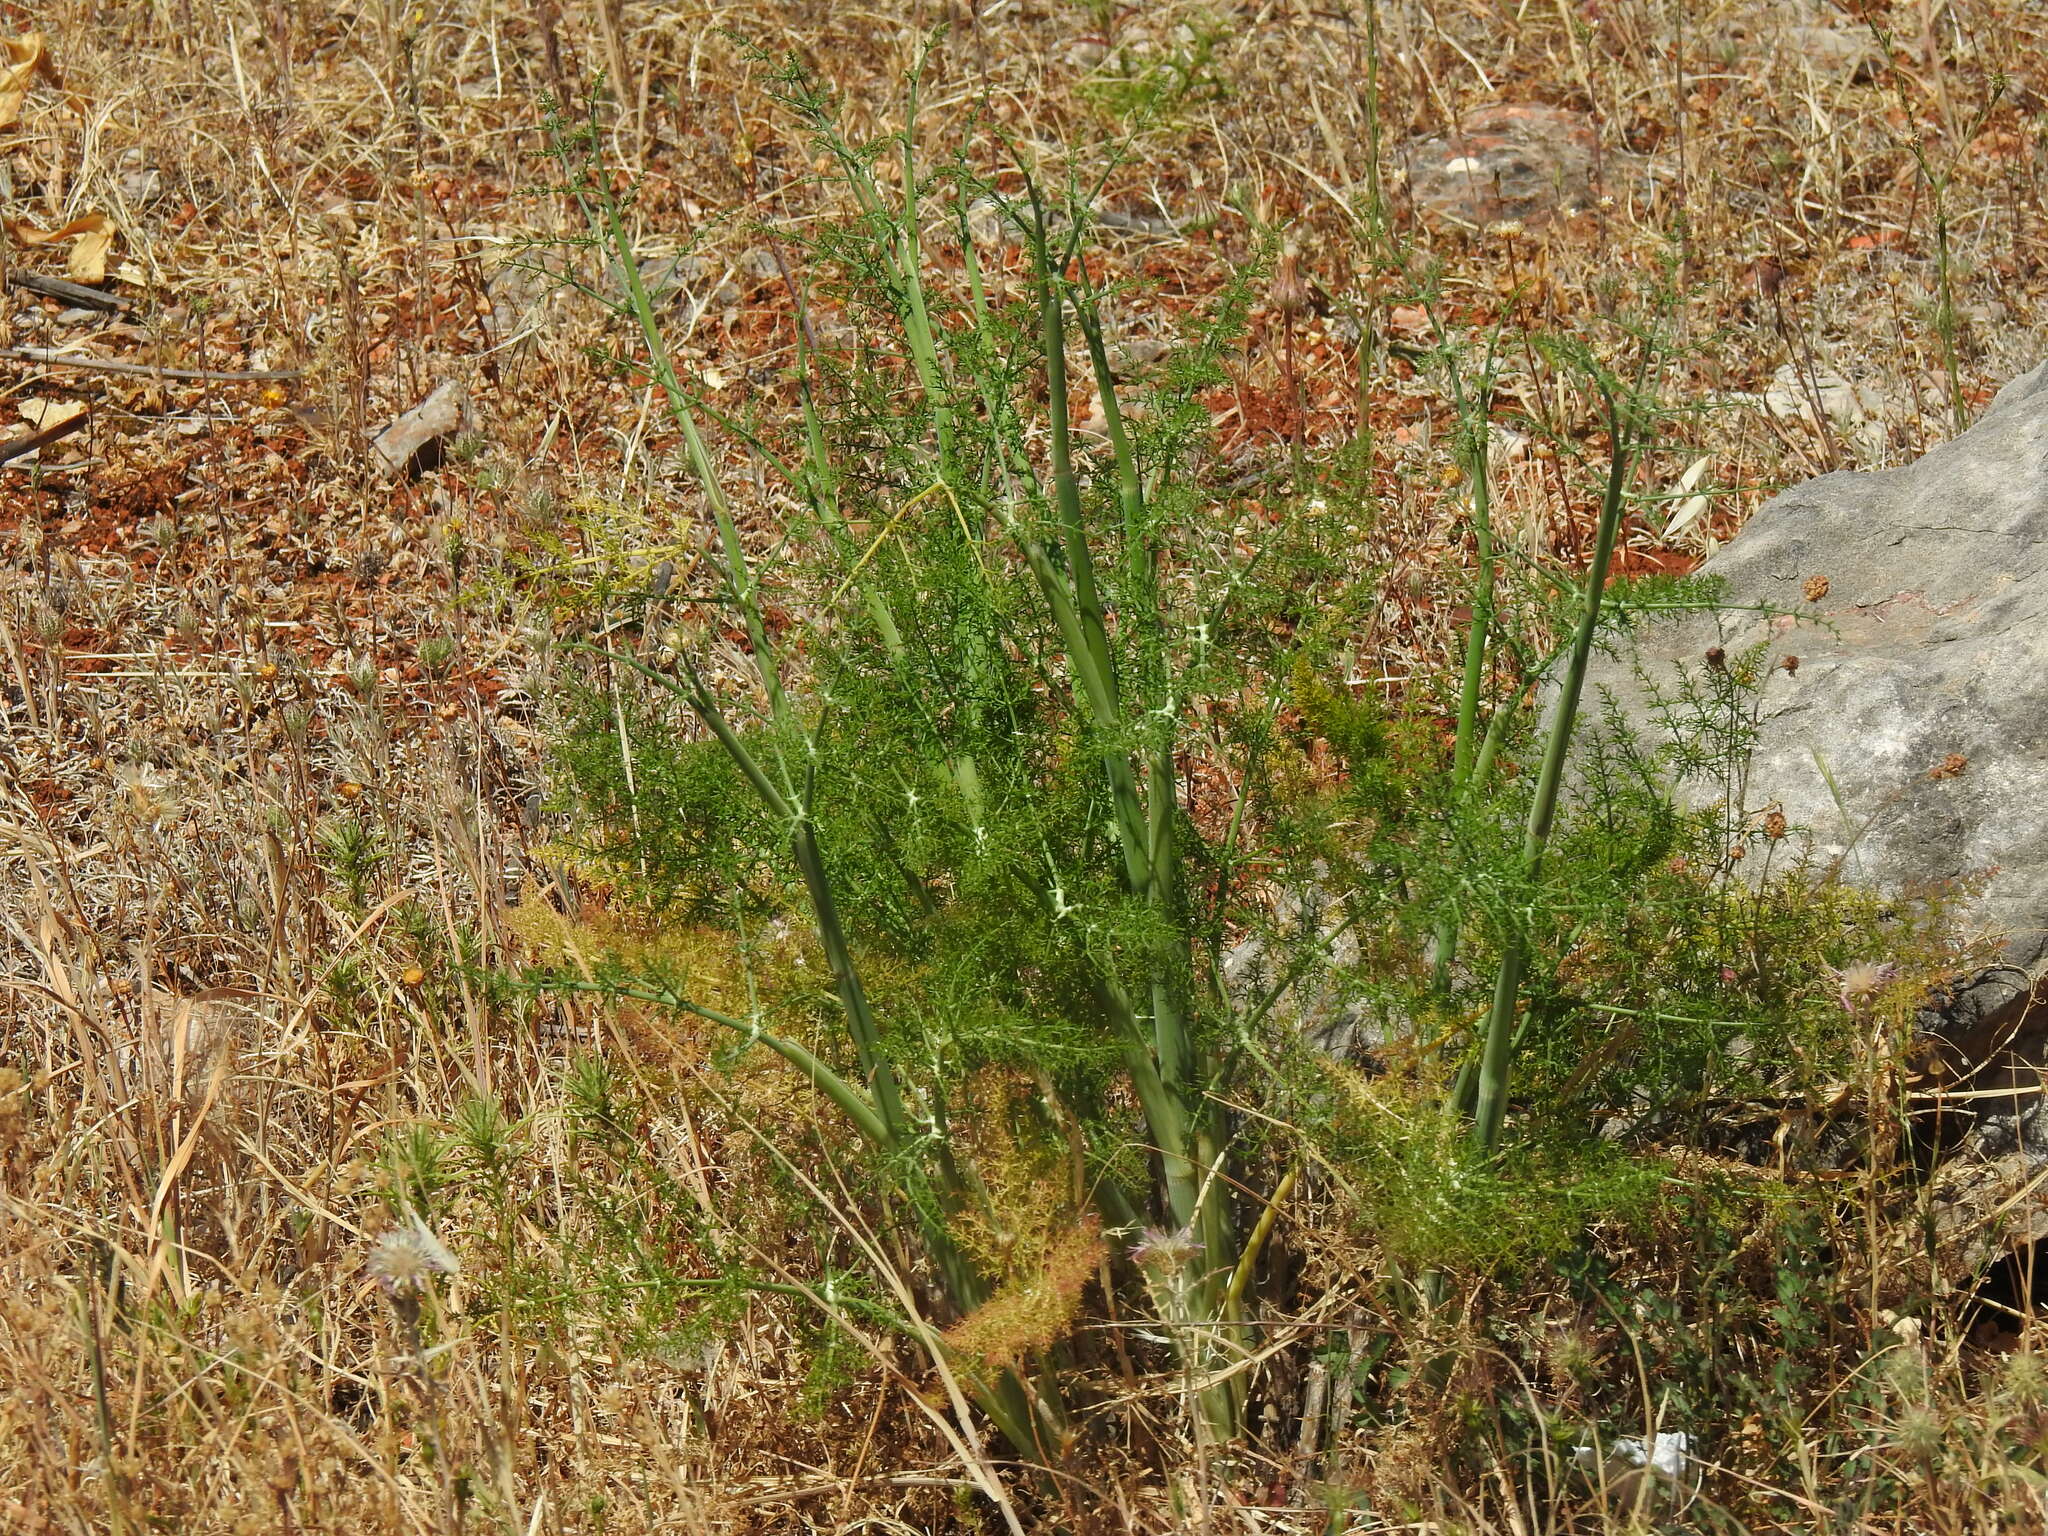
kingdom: Plantae
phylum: Tracheophyta
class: Magnoliopsida
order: Apiales
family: Apiaceae
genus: Foeniculum
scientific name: Foeniculum vulgare
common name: Fennel
